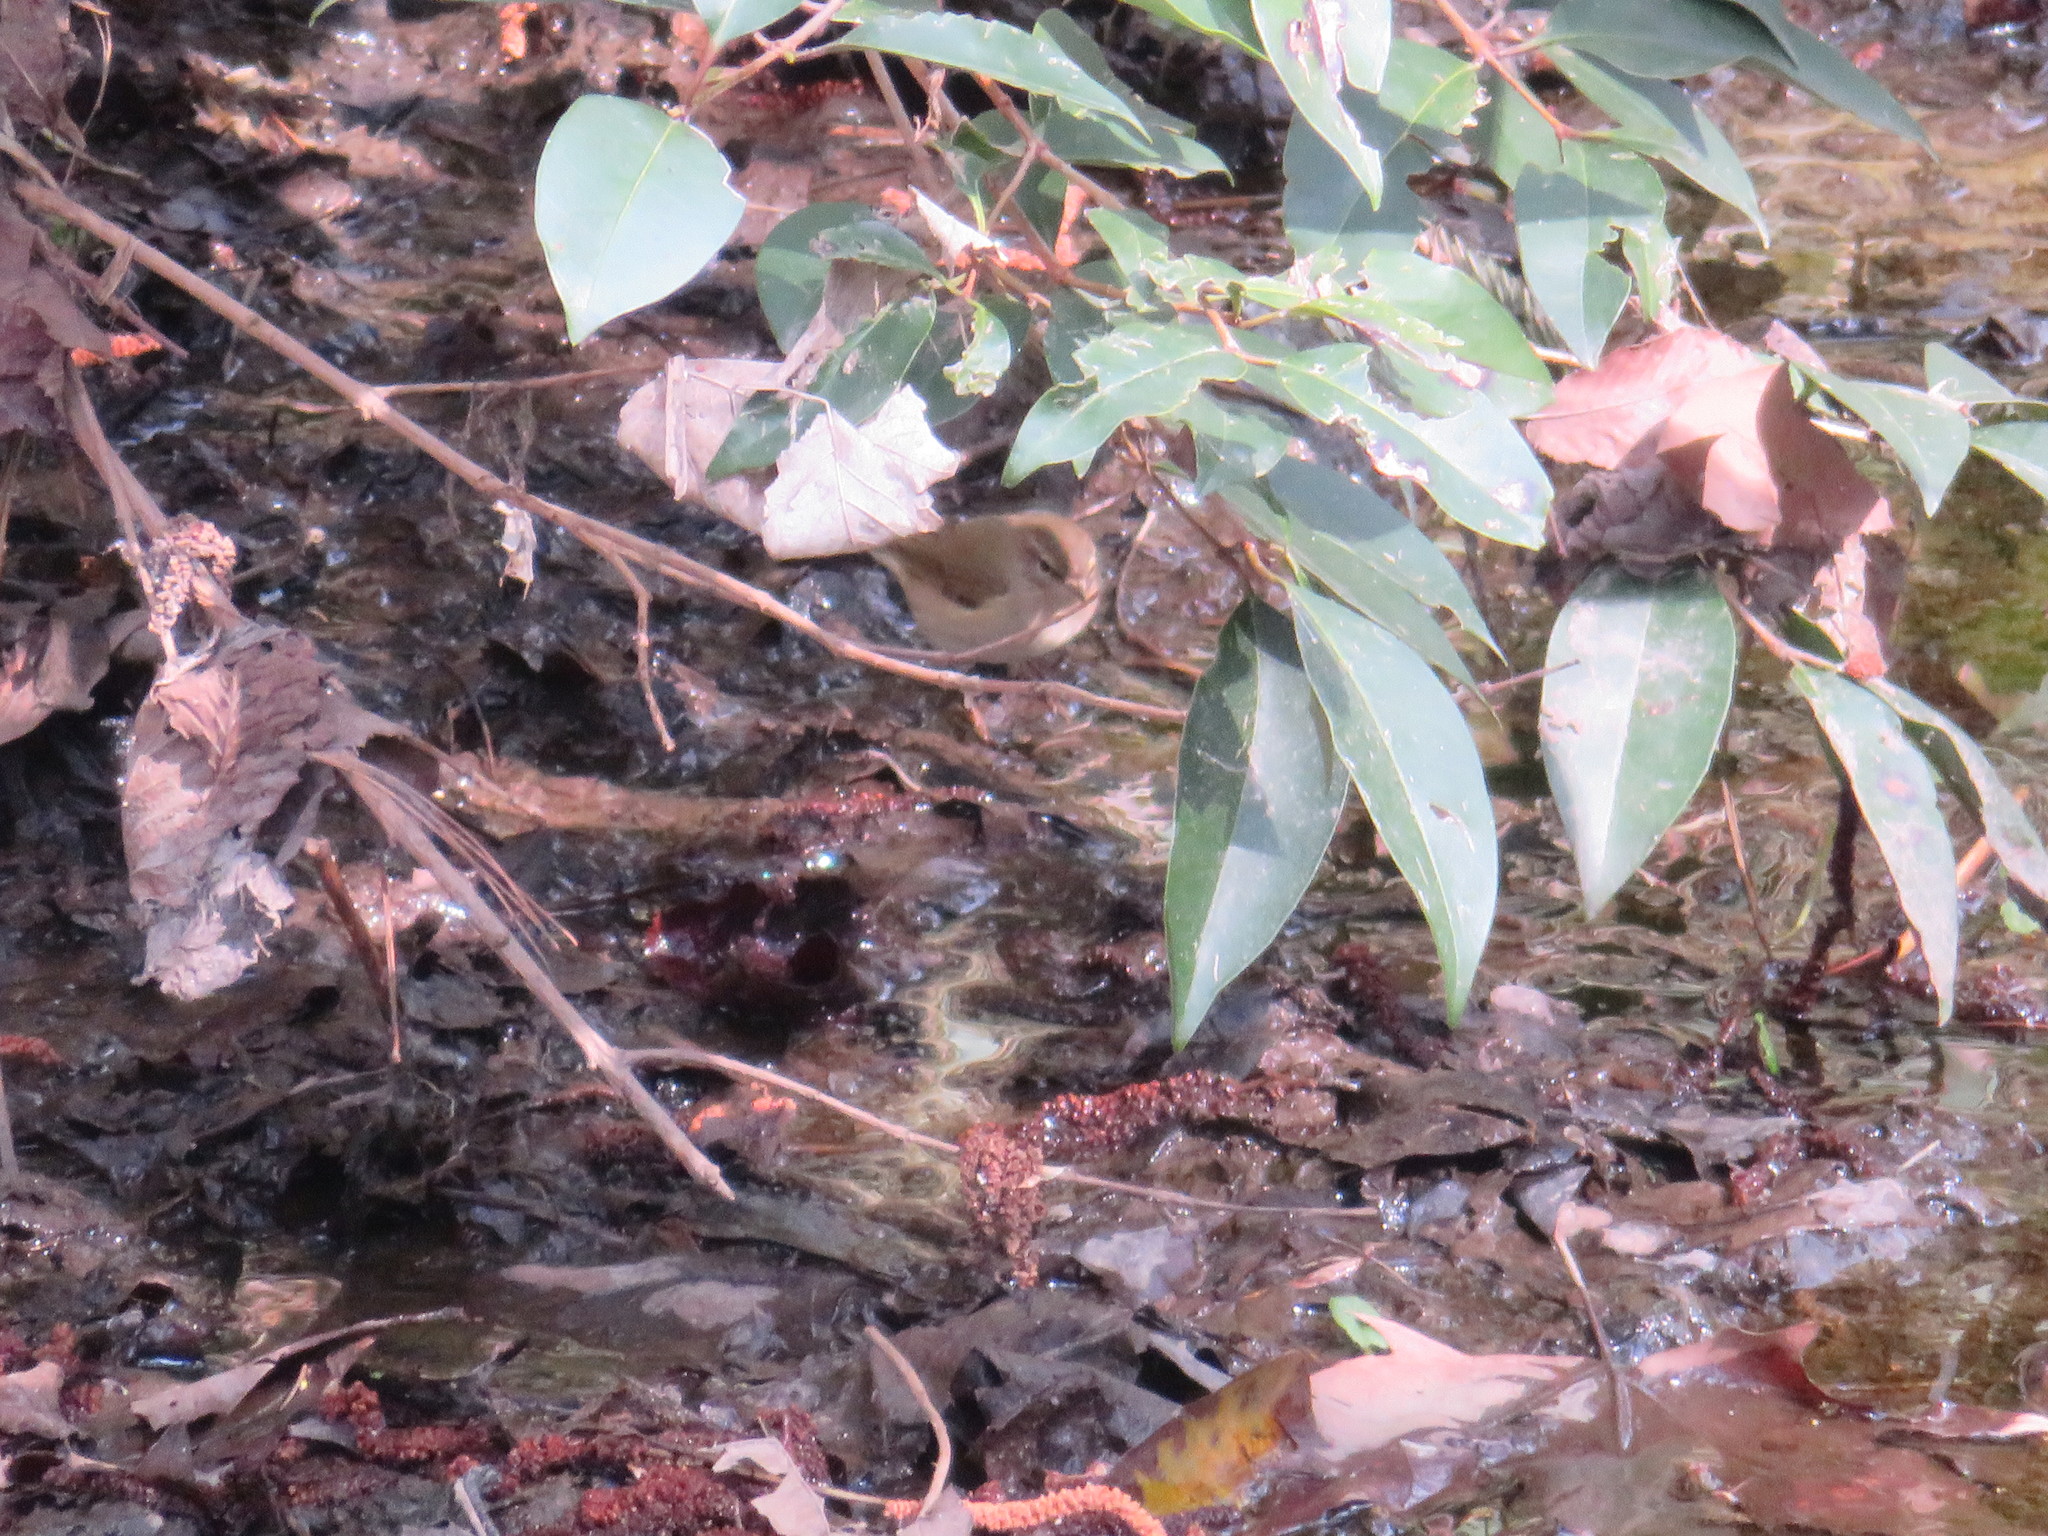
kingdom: Animalia
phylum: Chordata
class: Aves
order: Passeriformes
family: Phylloscopidae
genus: Phylloscopus
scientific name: Phylloscopus collybita
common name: Common chiffchaff
